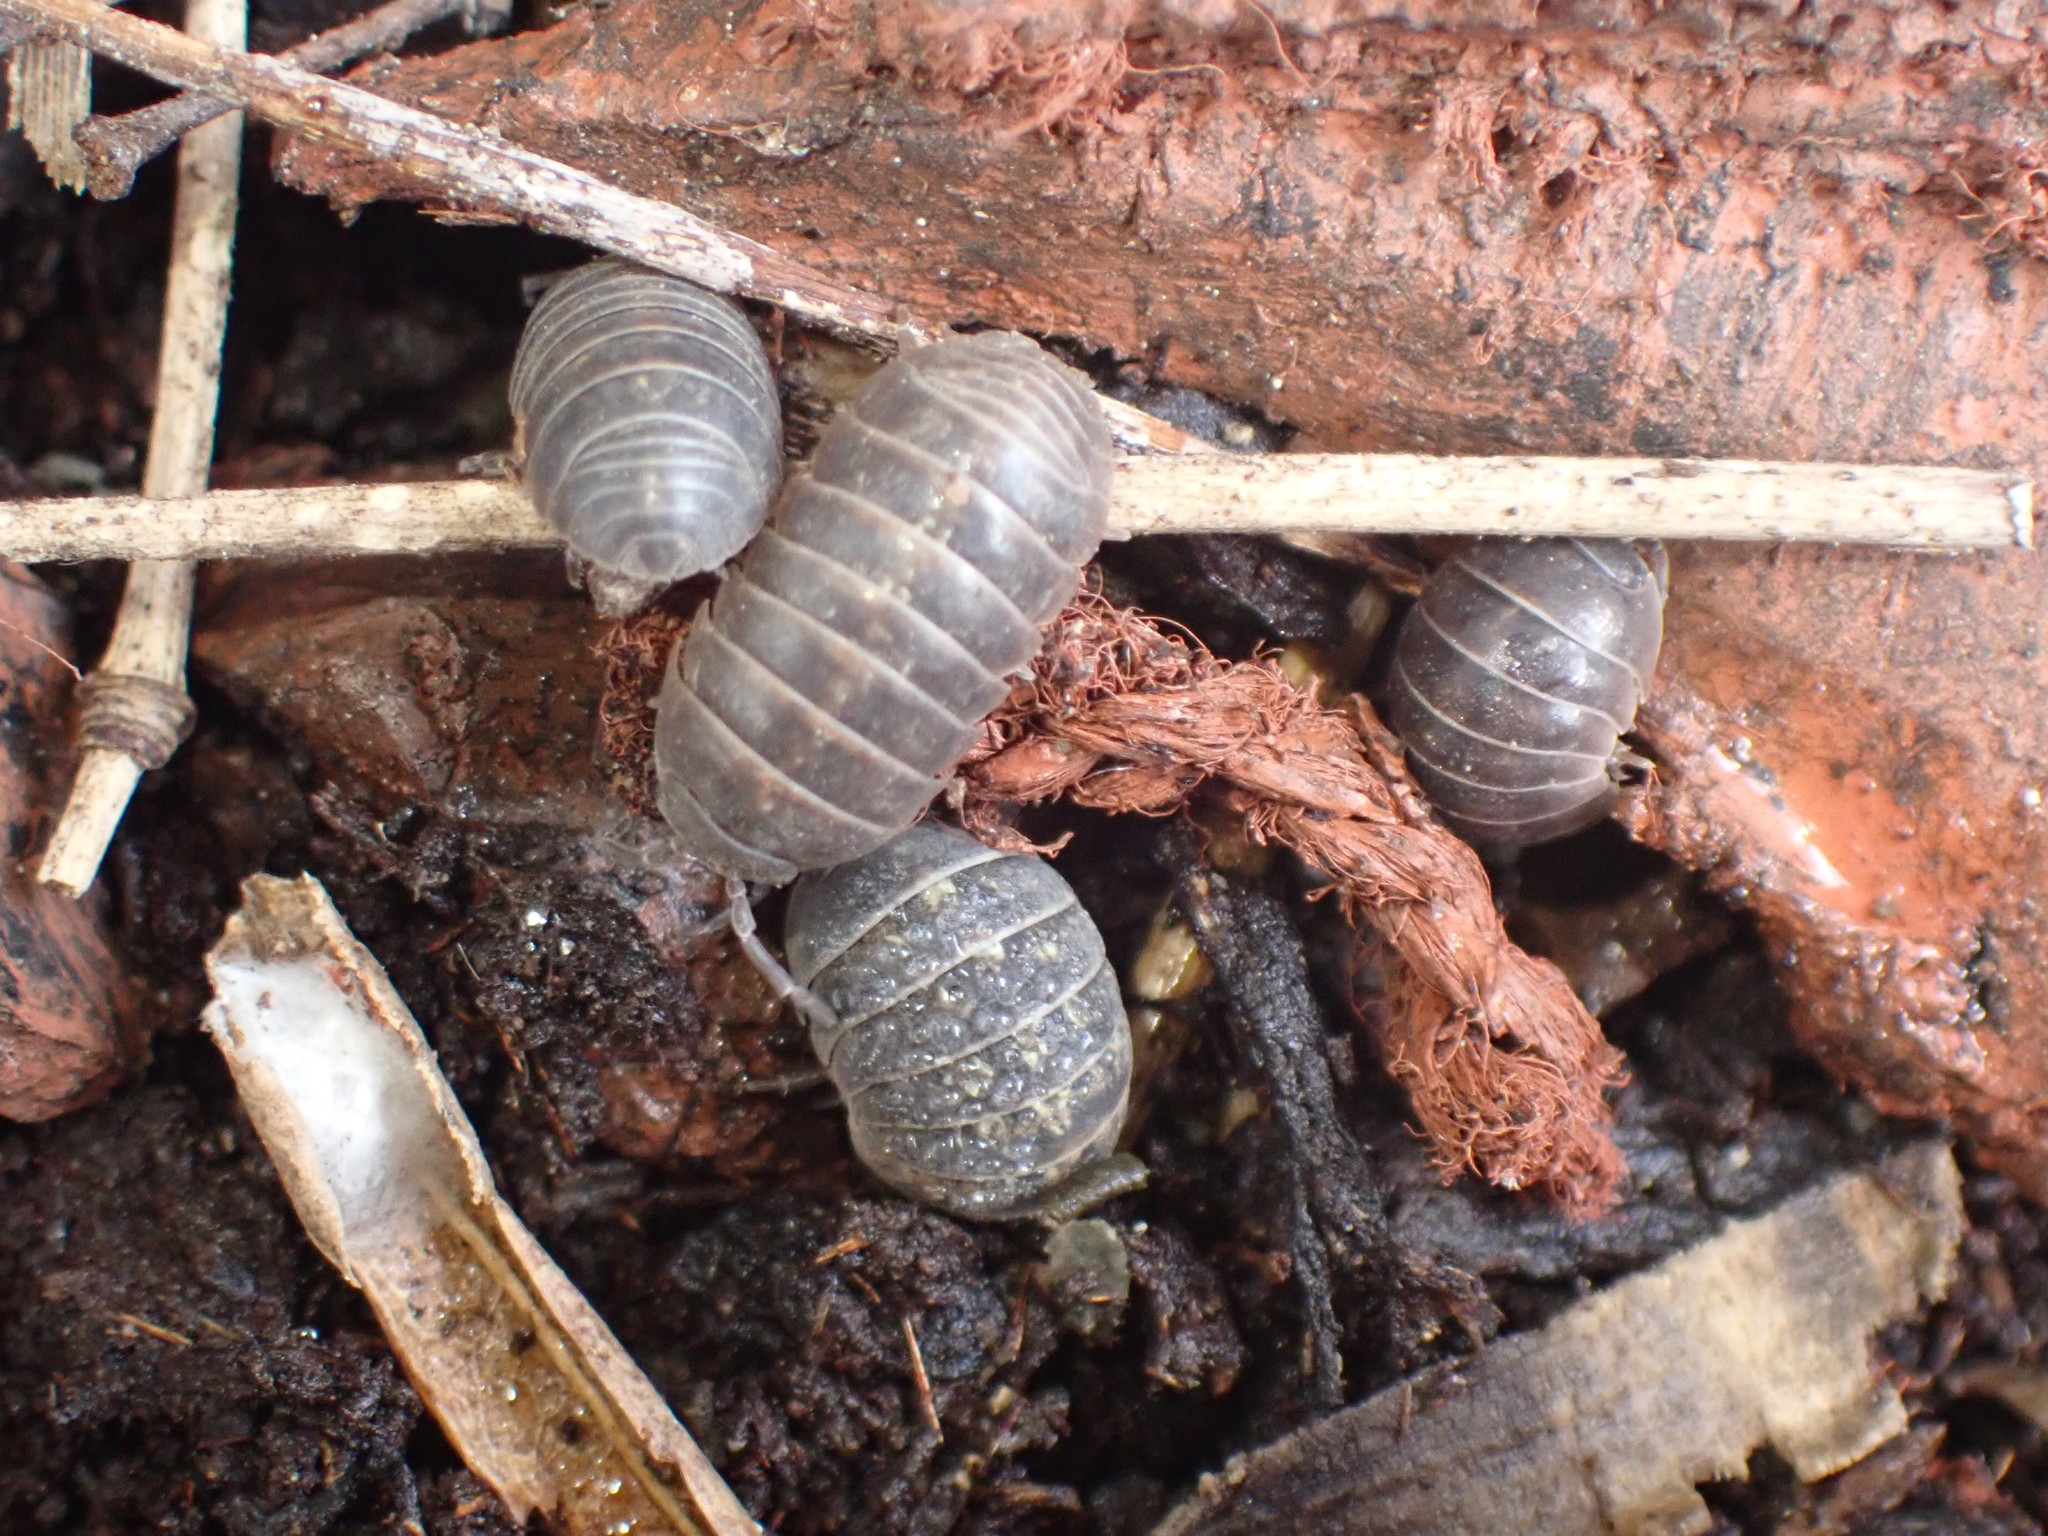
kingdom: Animalia
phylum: Arthropoda
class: Malacostraca
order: Isopoda
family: Armadillidiidae
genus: Armadillidium
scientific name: Armadillidium vulgare
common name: Common pill woodlouse
